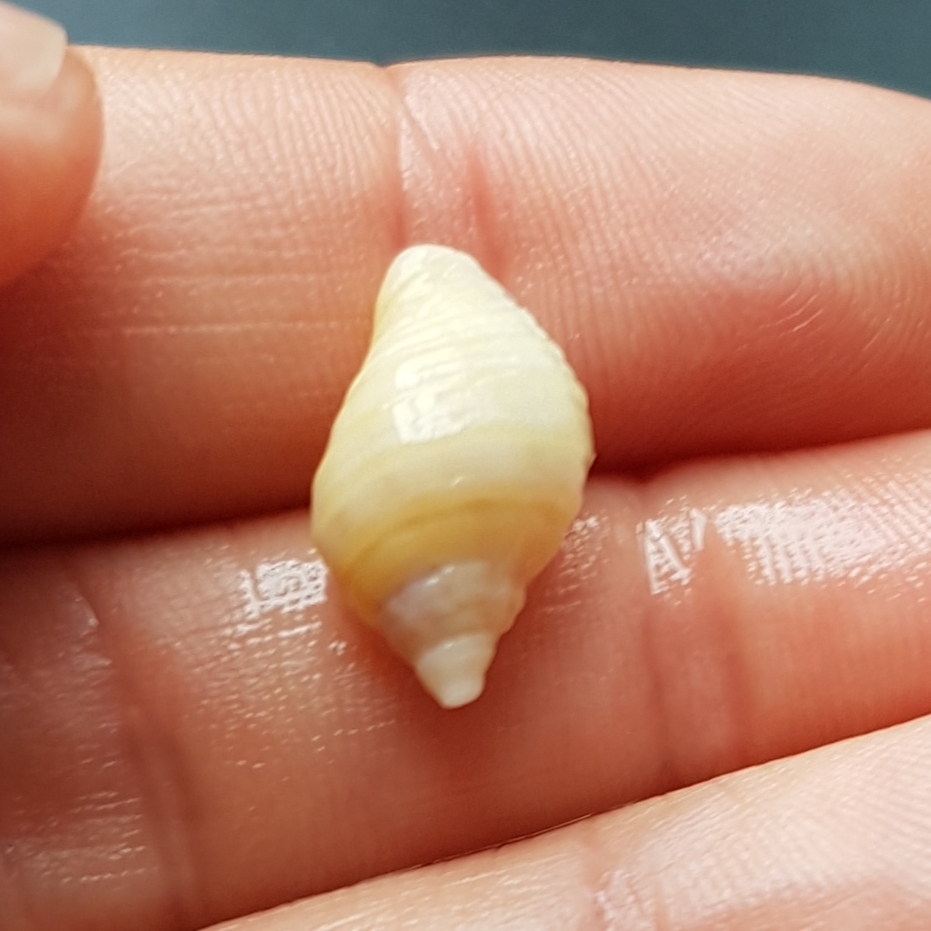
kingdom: Animalia
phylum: Mollusca
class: Gastropoda
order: Neogastropoda
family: Muricidae
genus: Nucella
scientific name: Nucella lapillus
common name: Dog whelk
